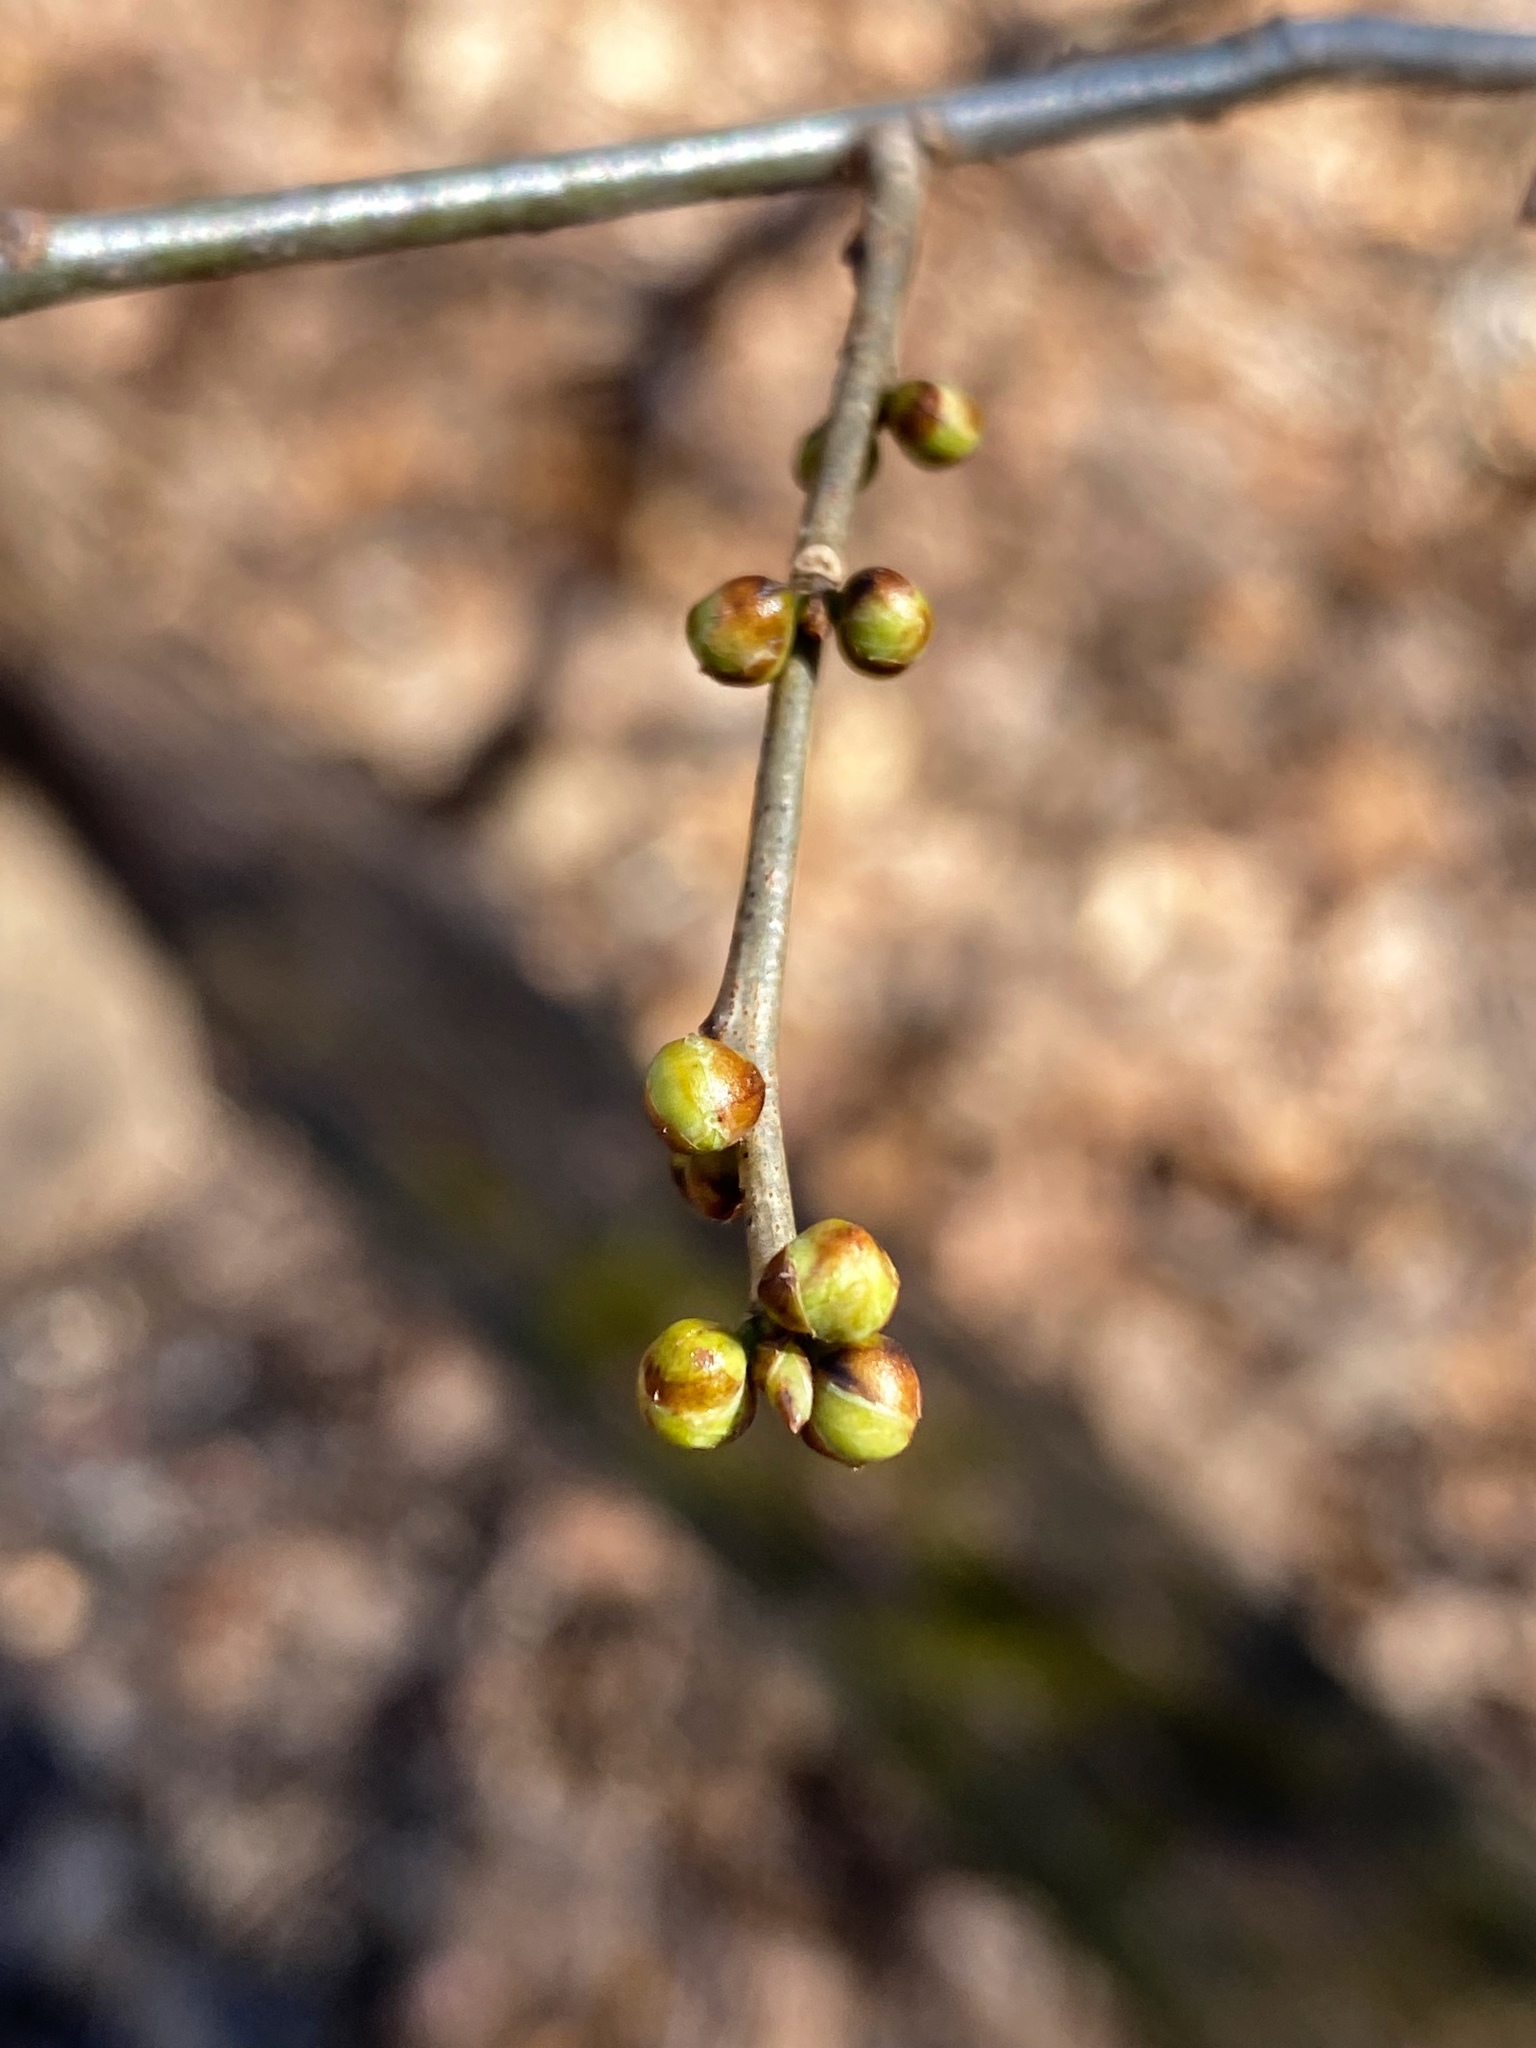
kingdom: Plantae
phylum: Tracheophyta
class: Magnoliopsida
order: Laurales
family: Lauraceae
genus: Lindera
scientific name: Lindera benzoin
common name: Spicebush
